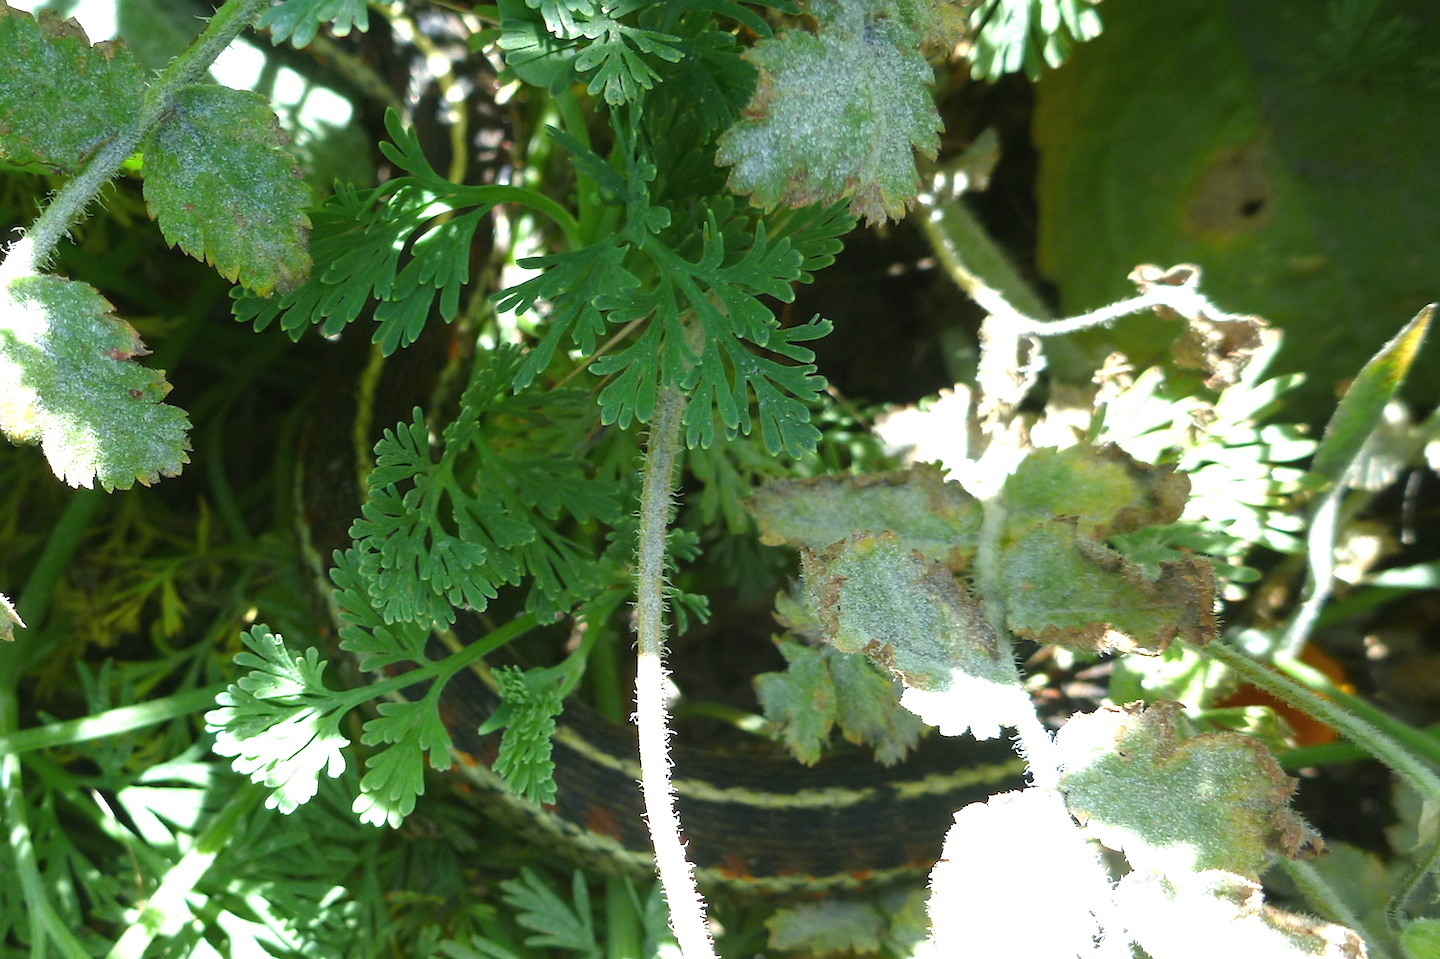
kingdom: Animalia
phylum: Chordata
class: Squamata
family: Colubridae
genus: Thamnophis
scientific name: Thamnophis elegans
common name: Western terrestrial garter snake
